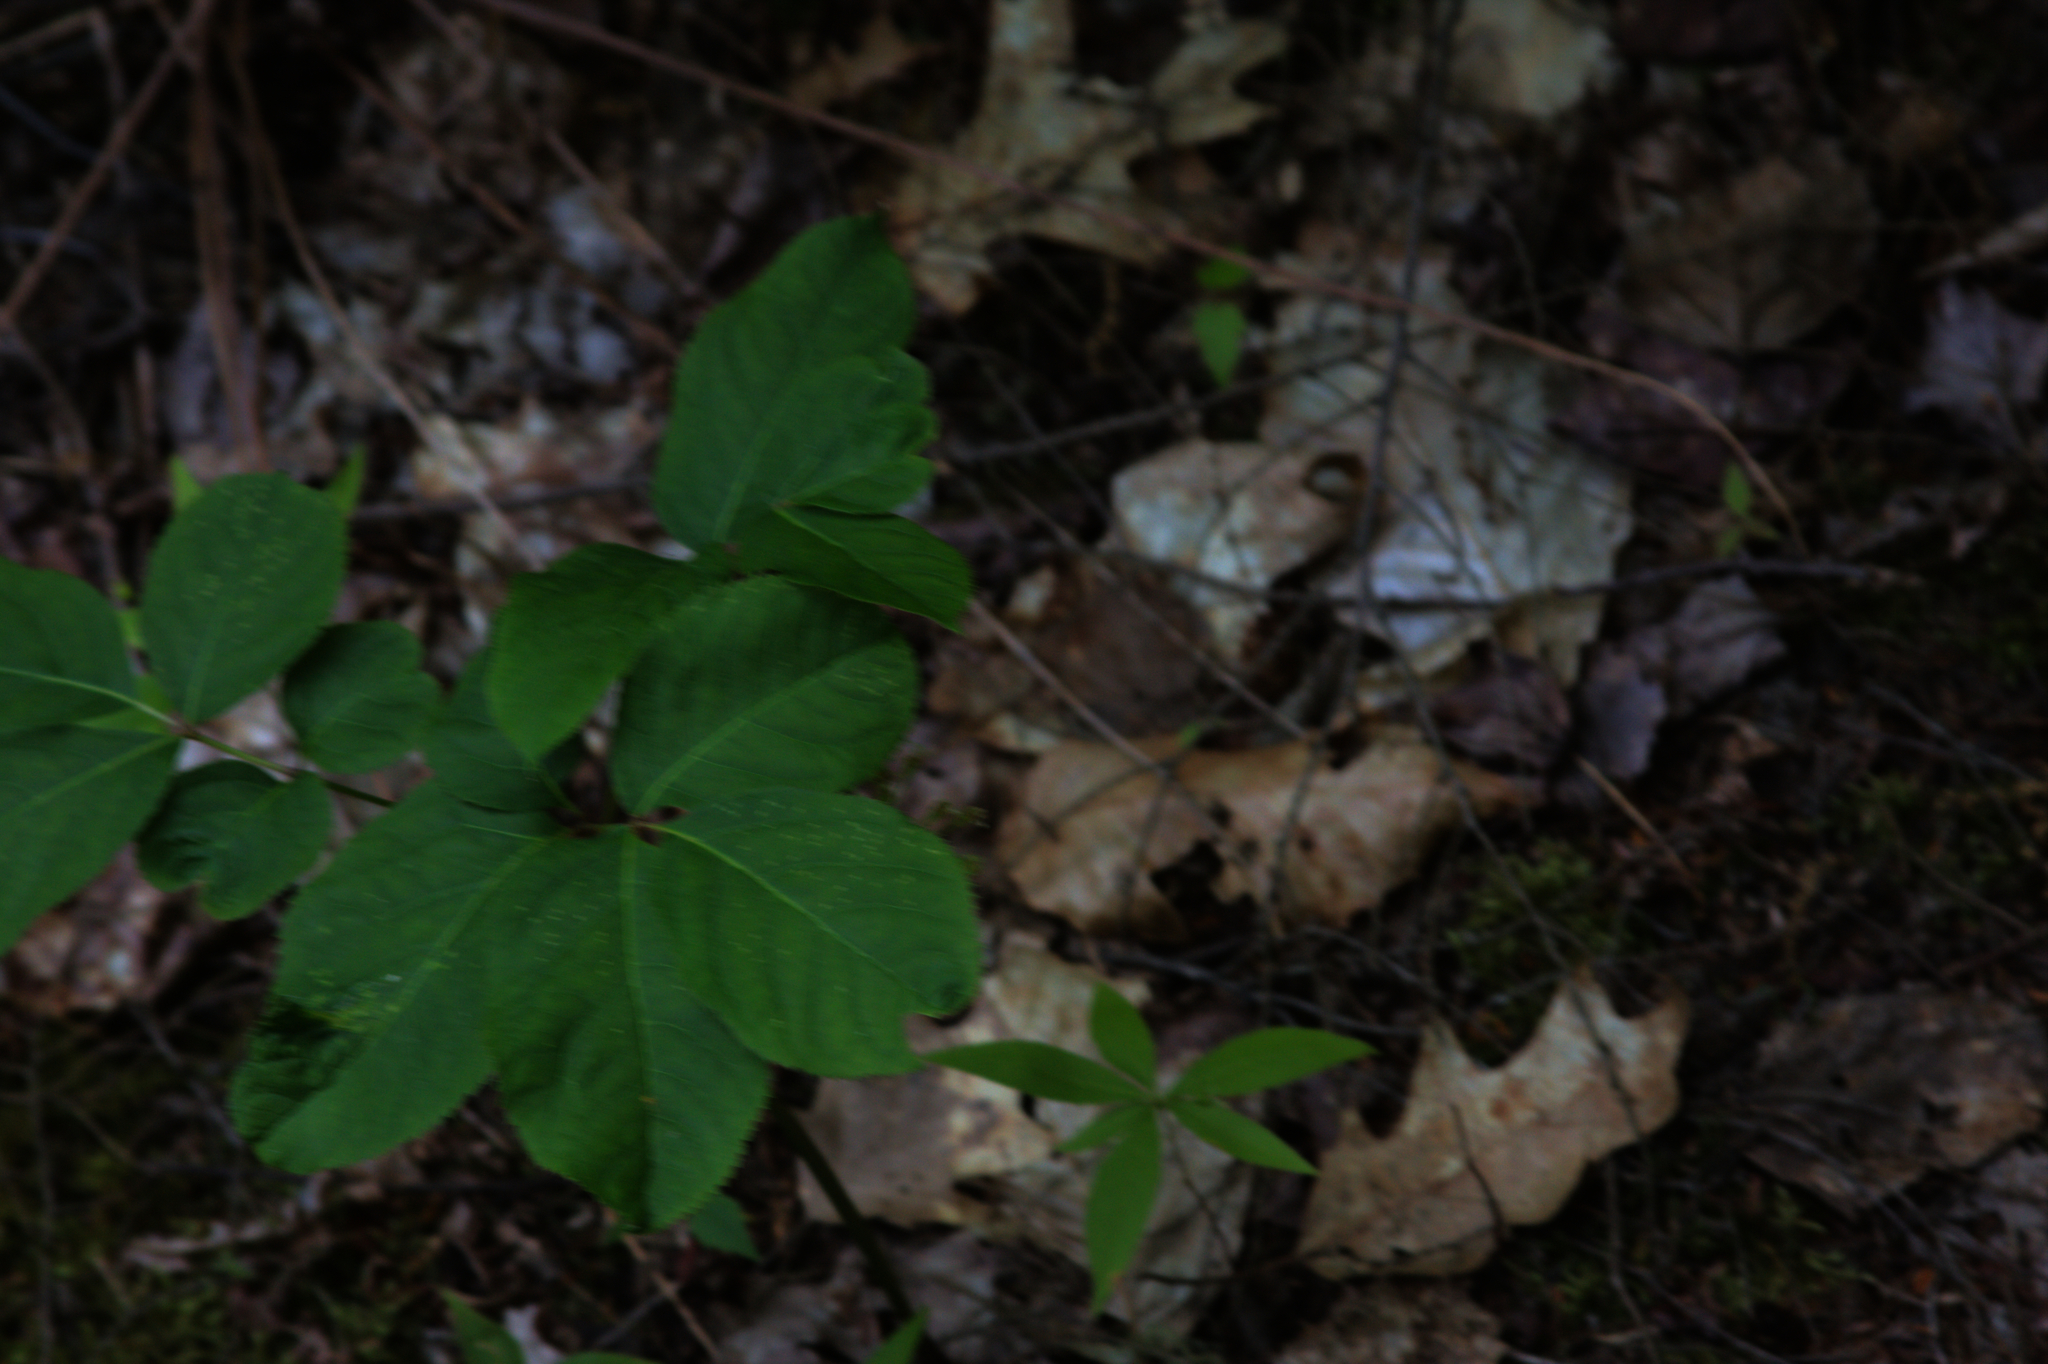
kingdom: Plantae
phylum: Tracheophyta
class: Magnoliopsida
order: Apiales
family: Araliaceae
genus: Aralia
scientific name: Aralia nudicaulis
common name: Wild sarsaparilla
